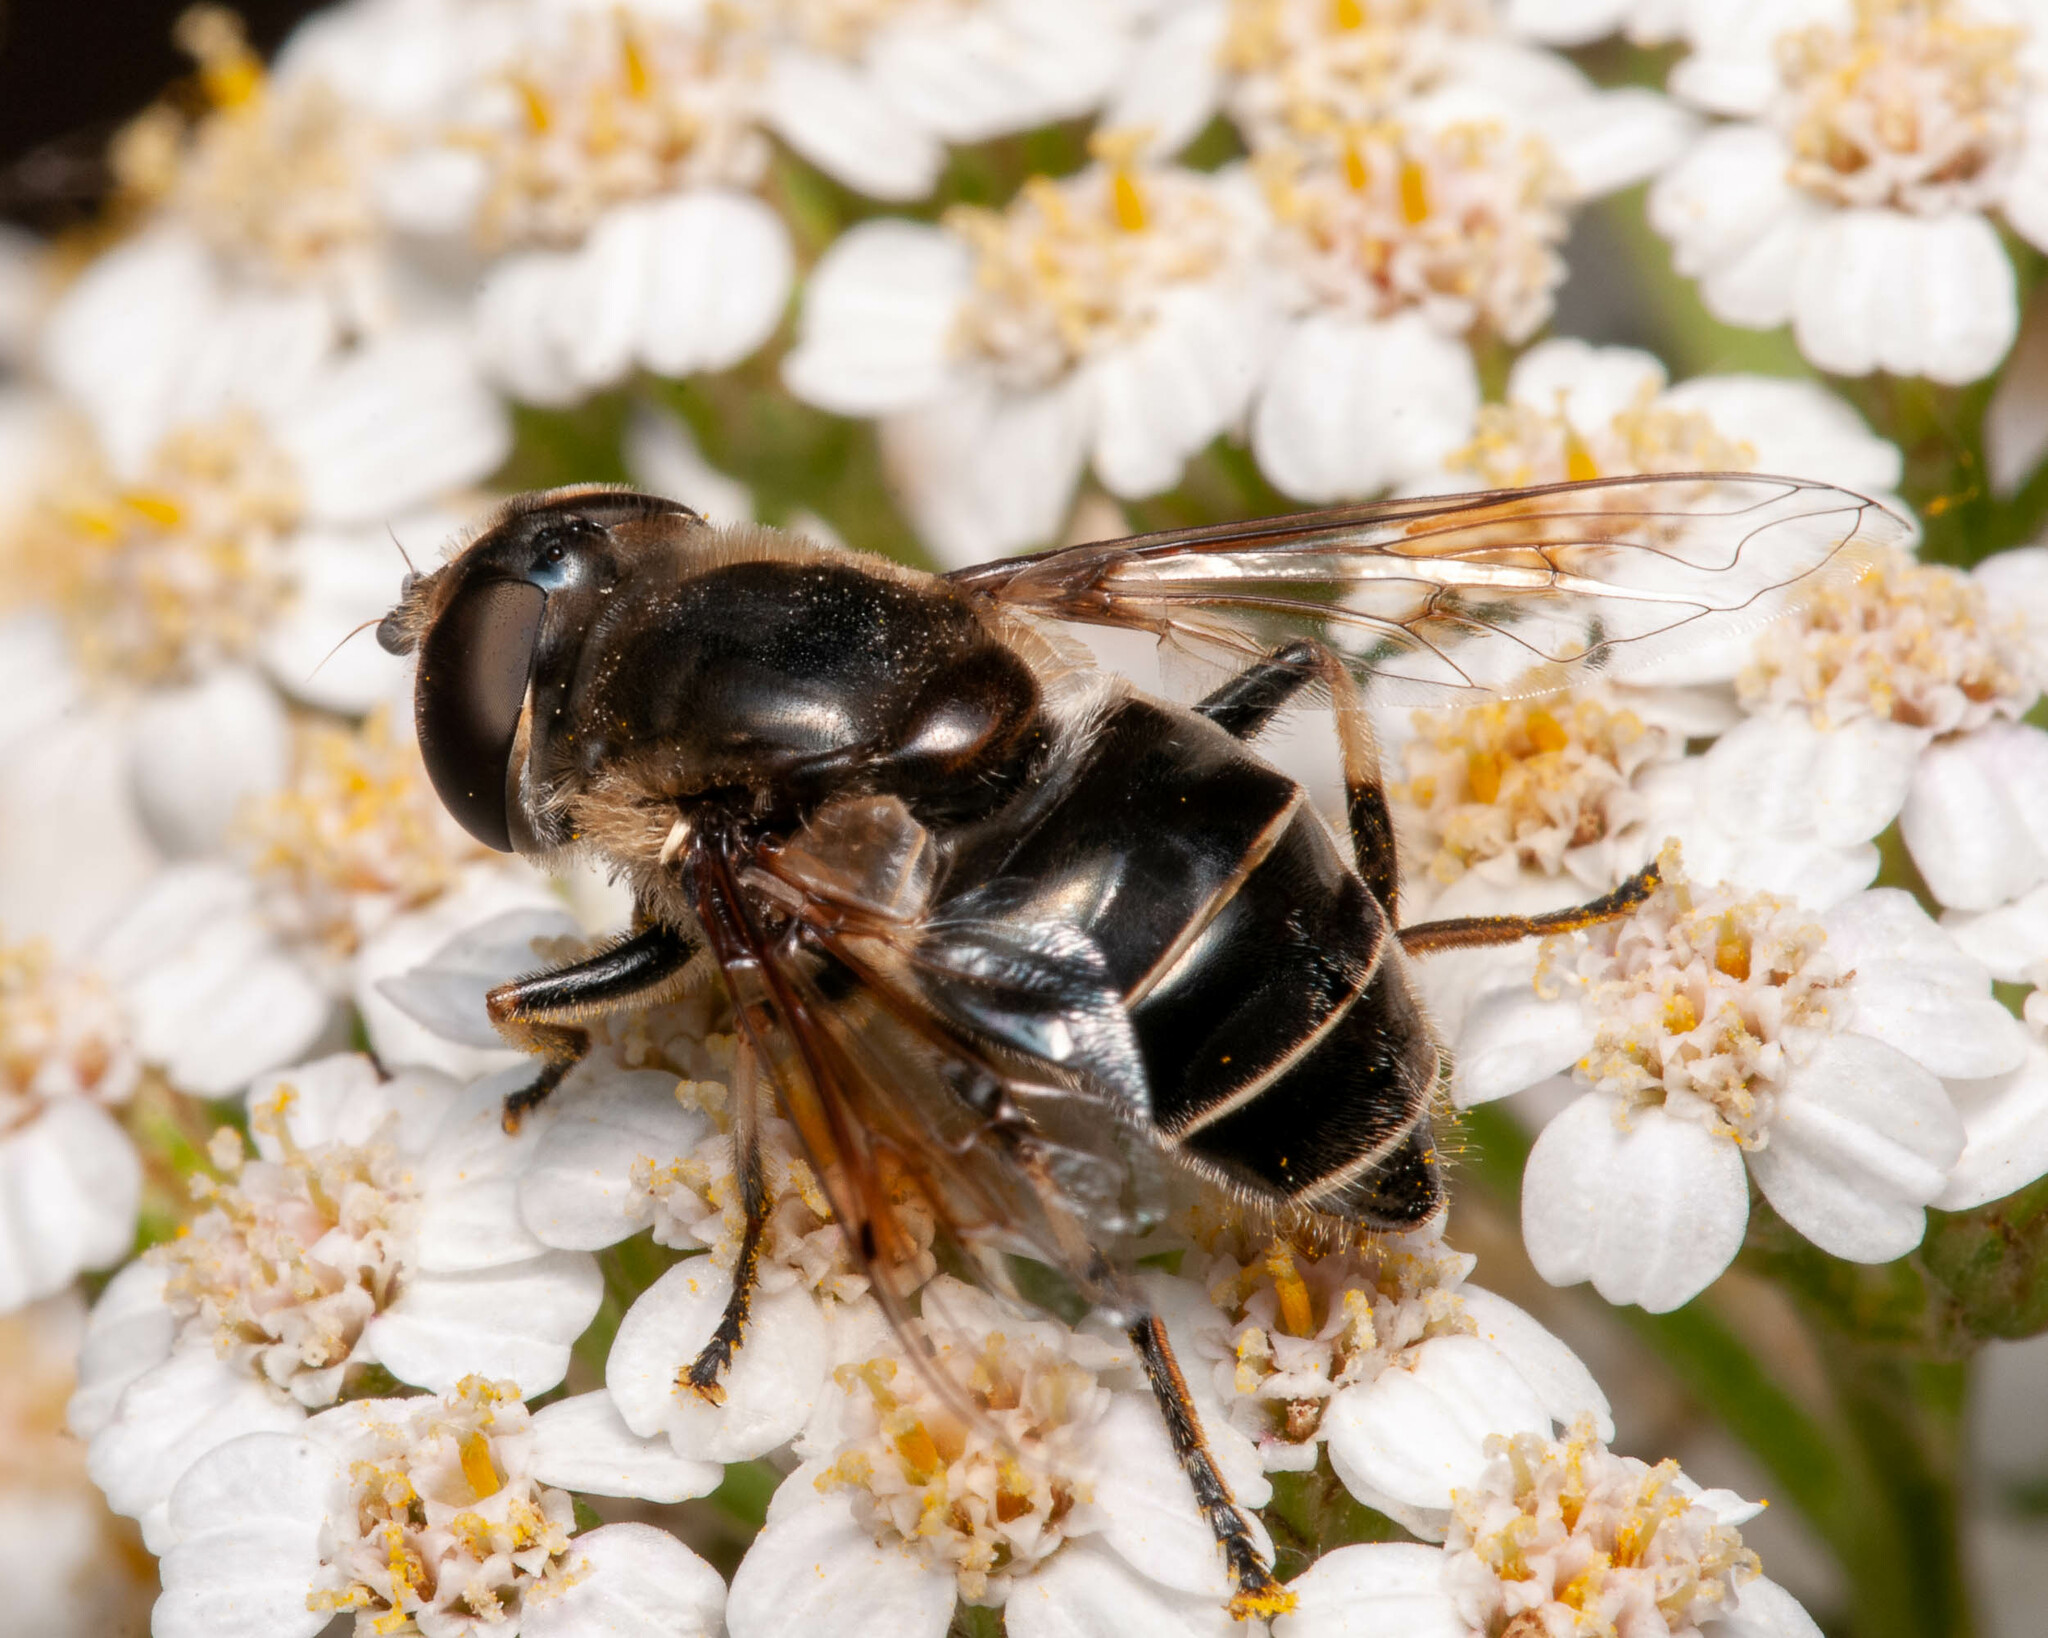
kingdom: Animalia
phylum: Arthropoda
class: Insecta
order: Diptera
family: Syrphidae
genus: Eristalis
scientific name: Eristalis dimidiata
